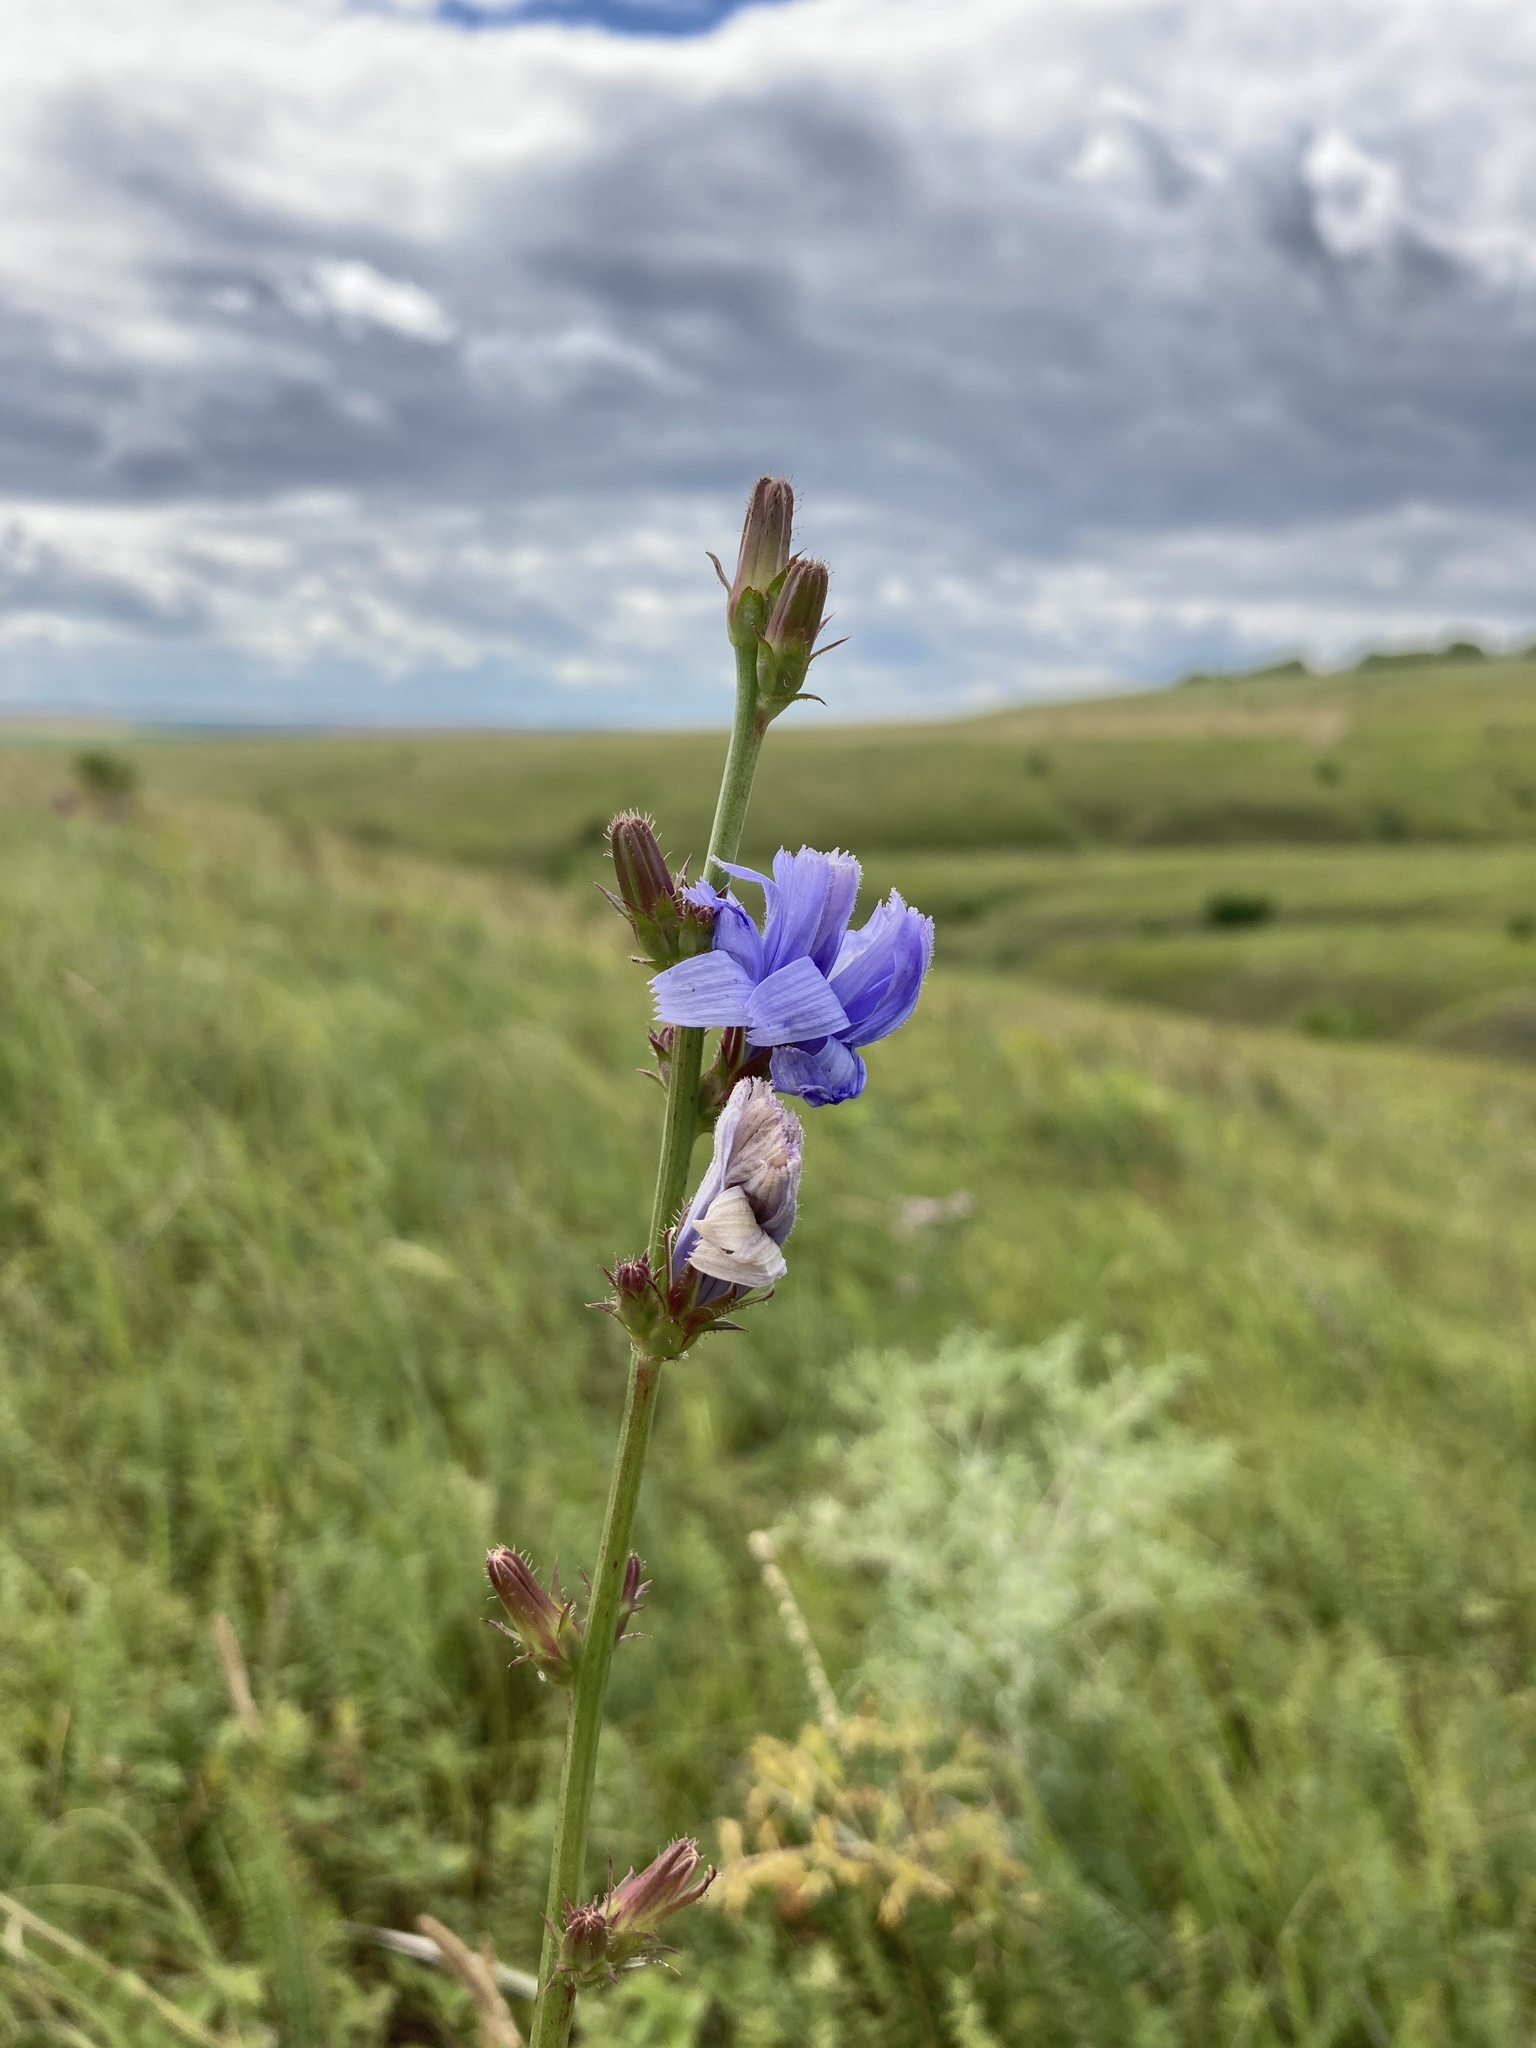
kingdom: Plantae
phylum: Tracheophyta
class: Magnoliopsida
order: Asterales
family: Asteraceae
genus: Cichorium
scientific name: Cichorium intybus
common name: Chicory
